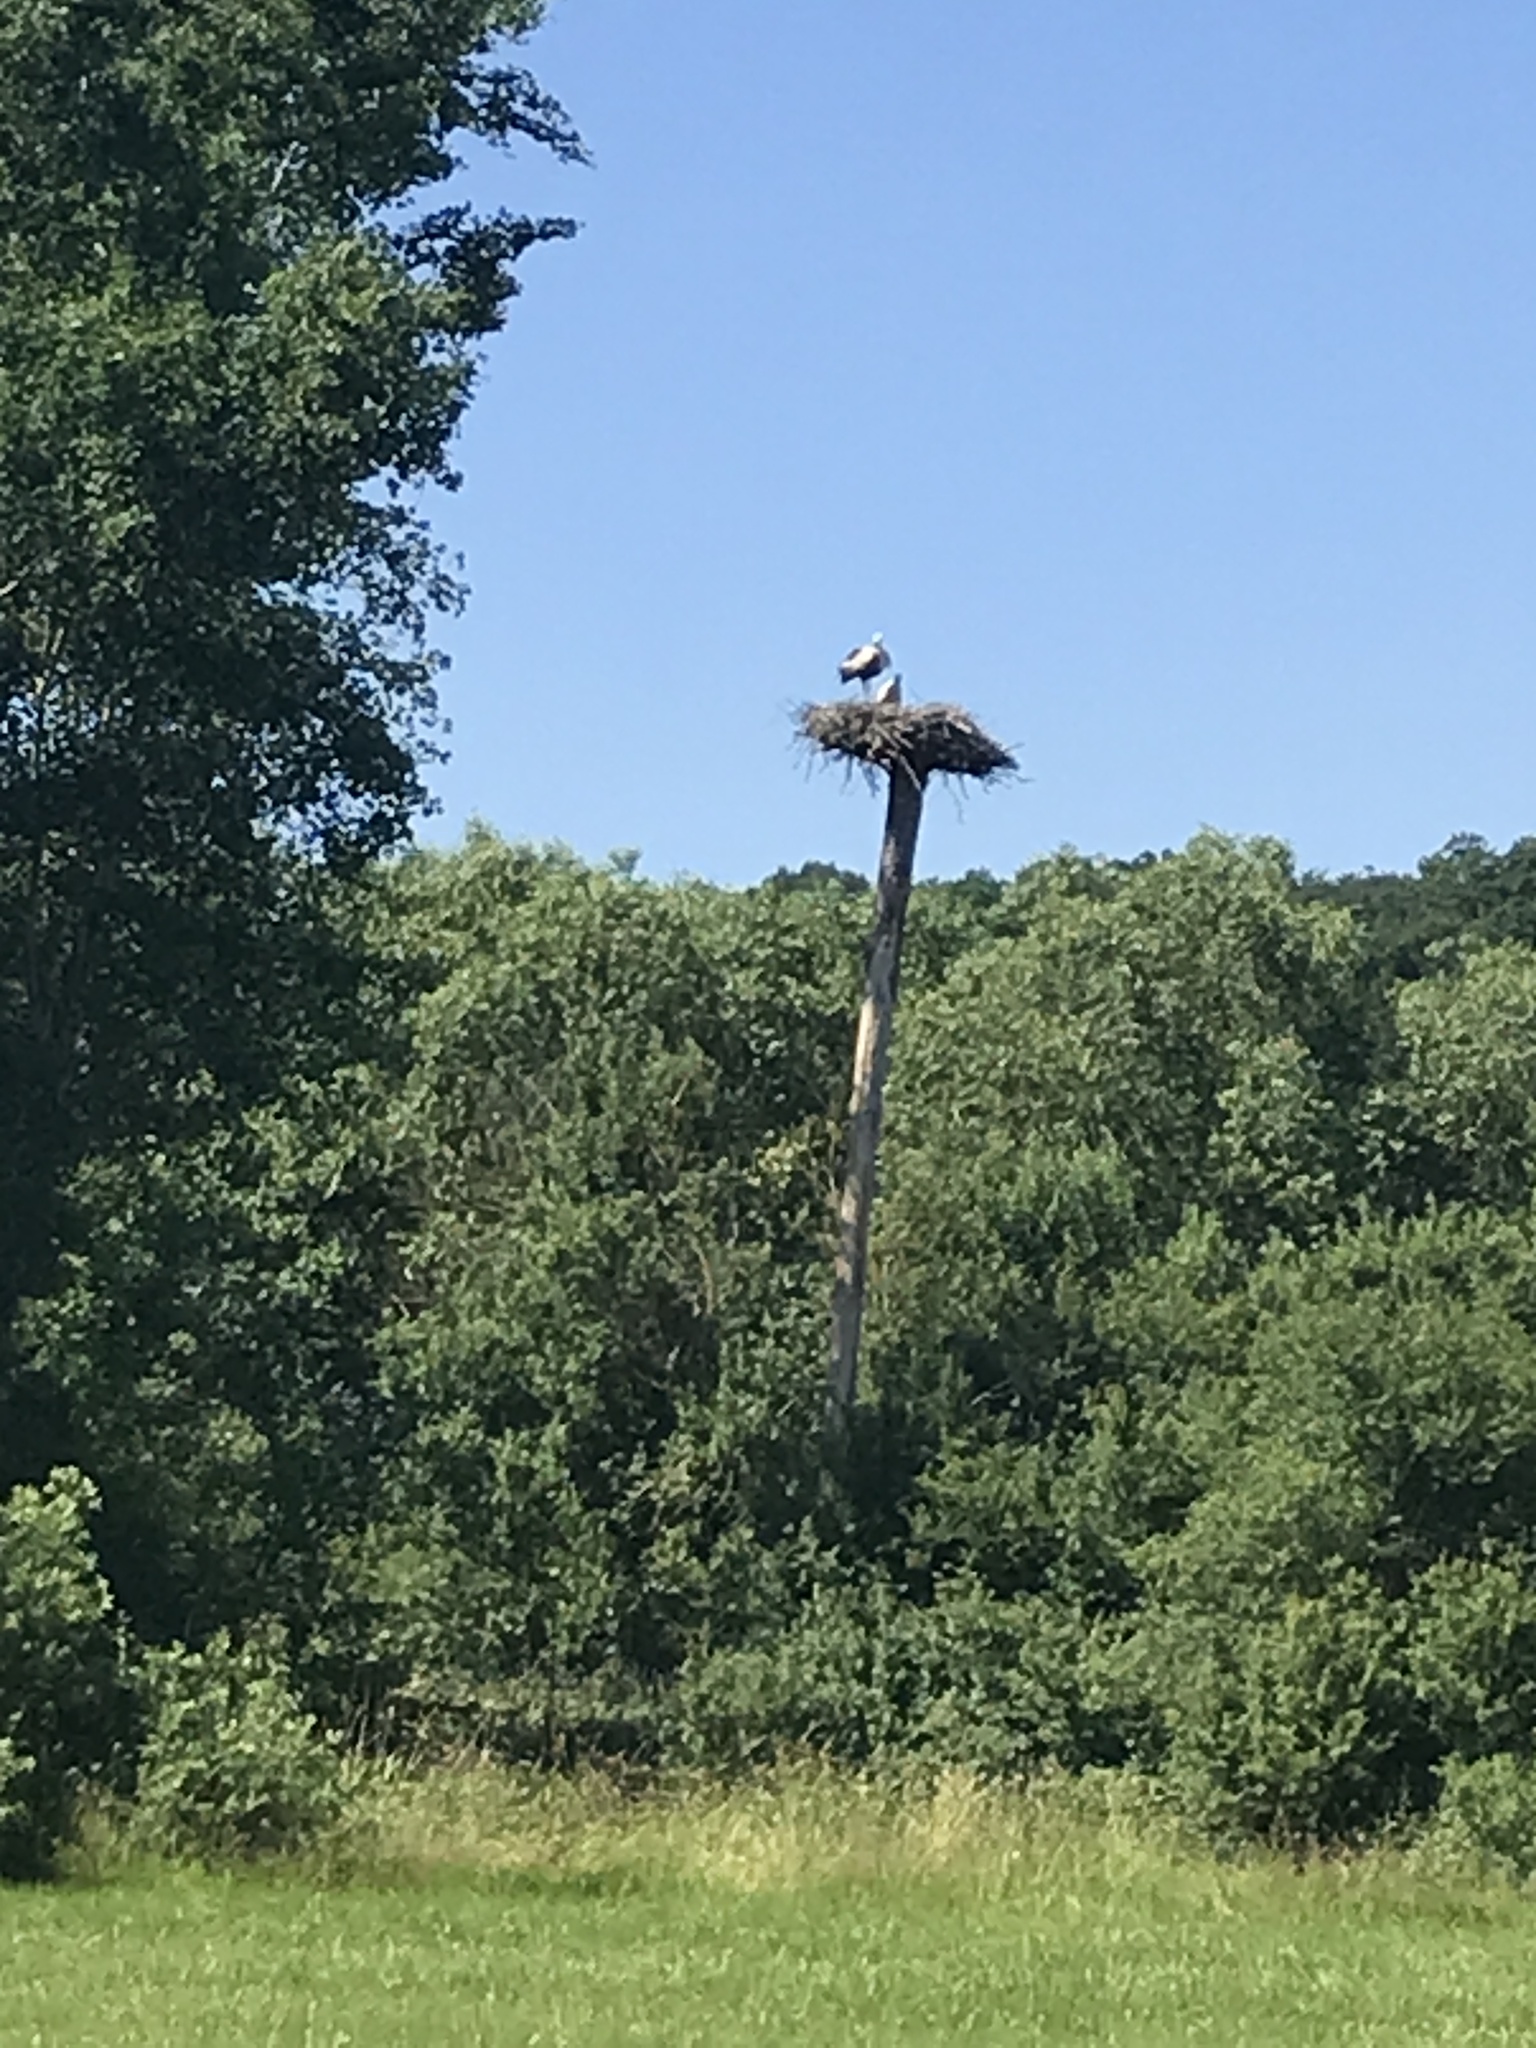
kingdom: Animalia
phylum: Chordata
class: Aves
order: Ciconiiformes
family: Ciconiidae
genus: Ciconia
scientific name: Ciconia ciconia
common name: White stork
